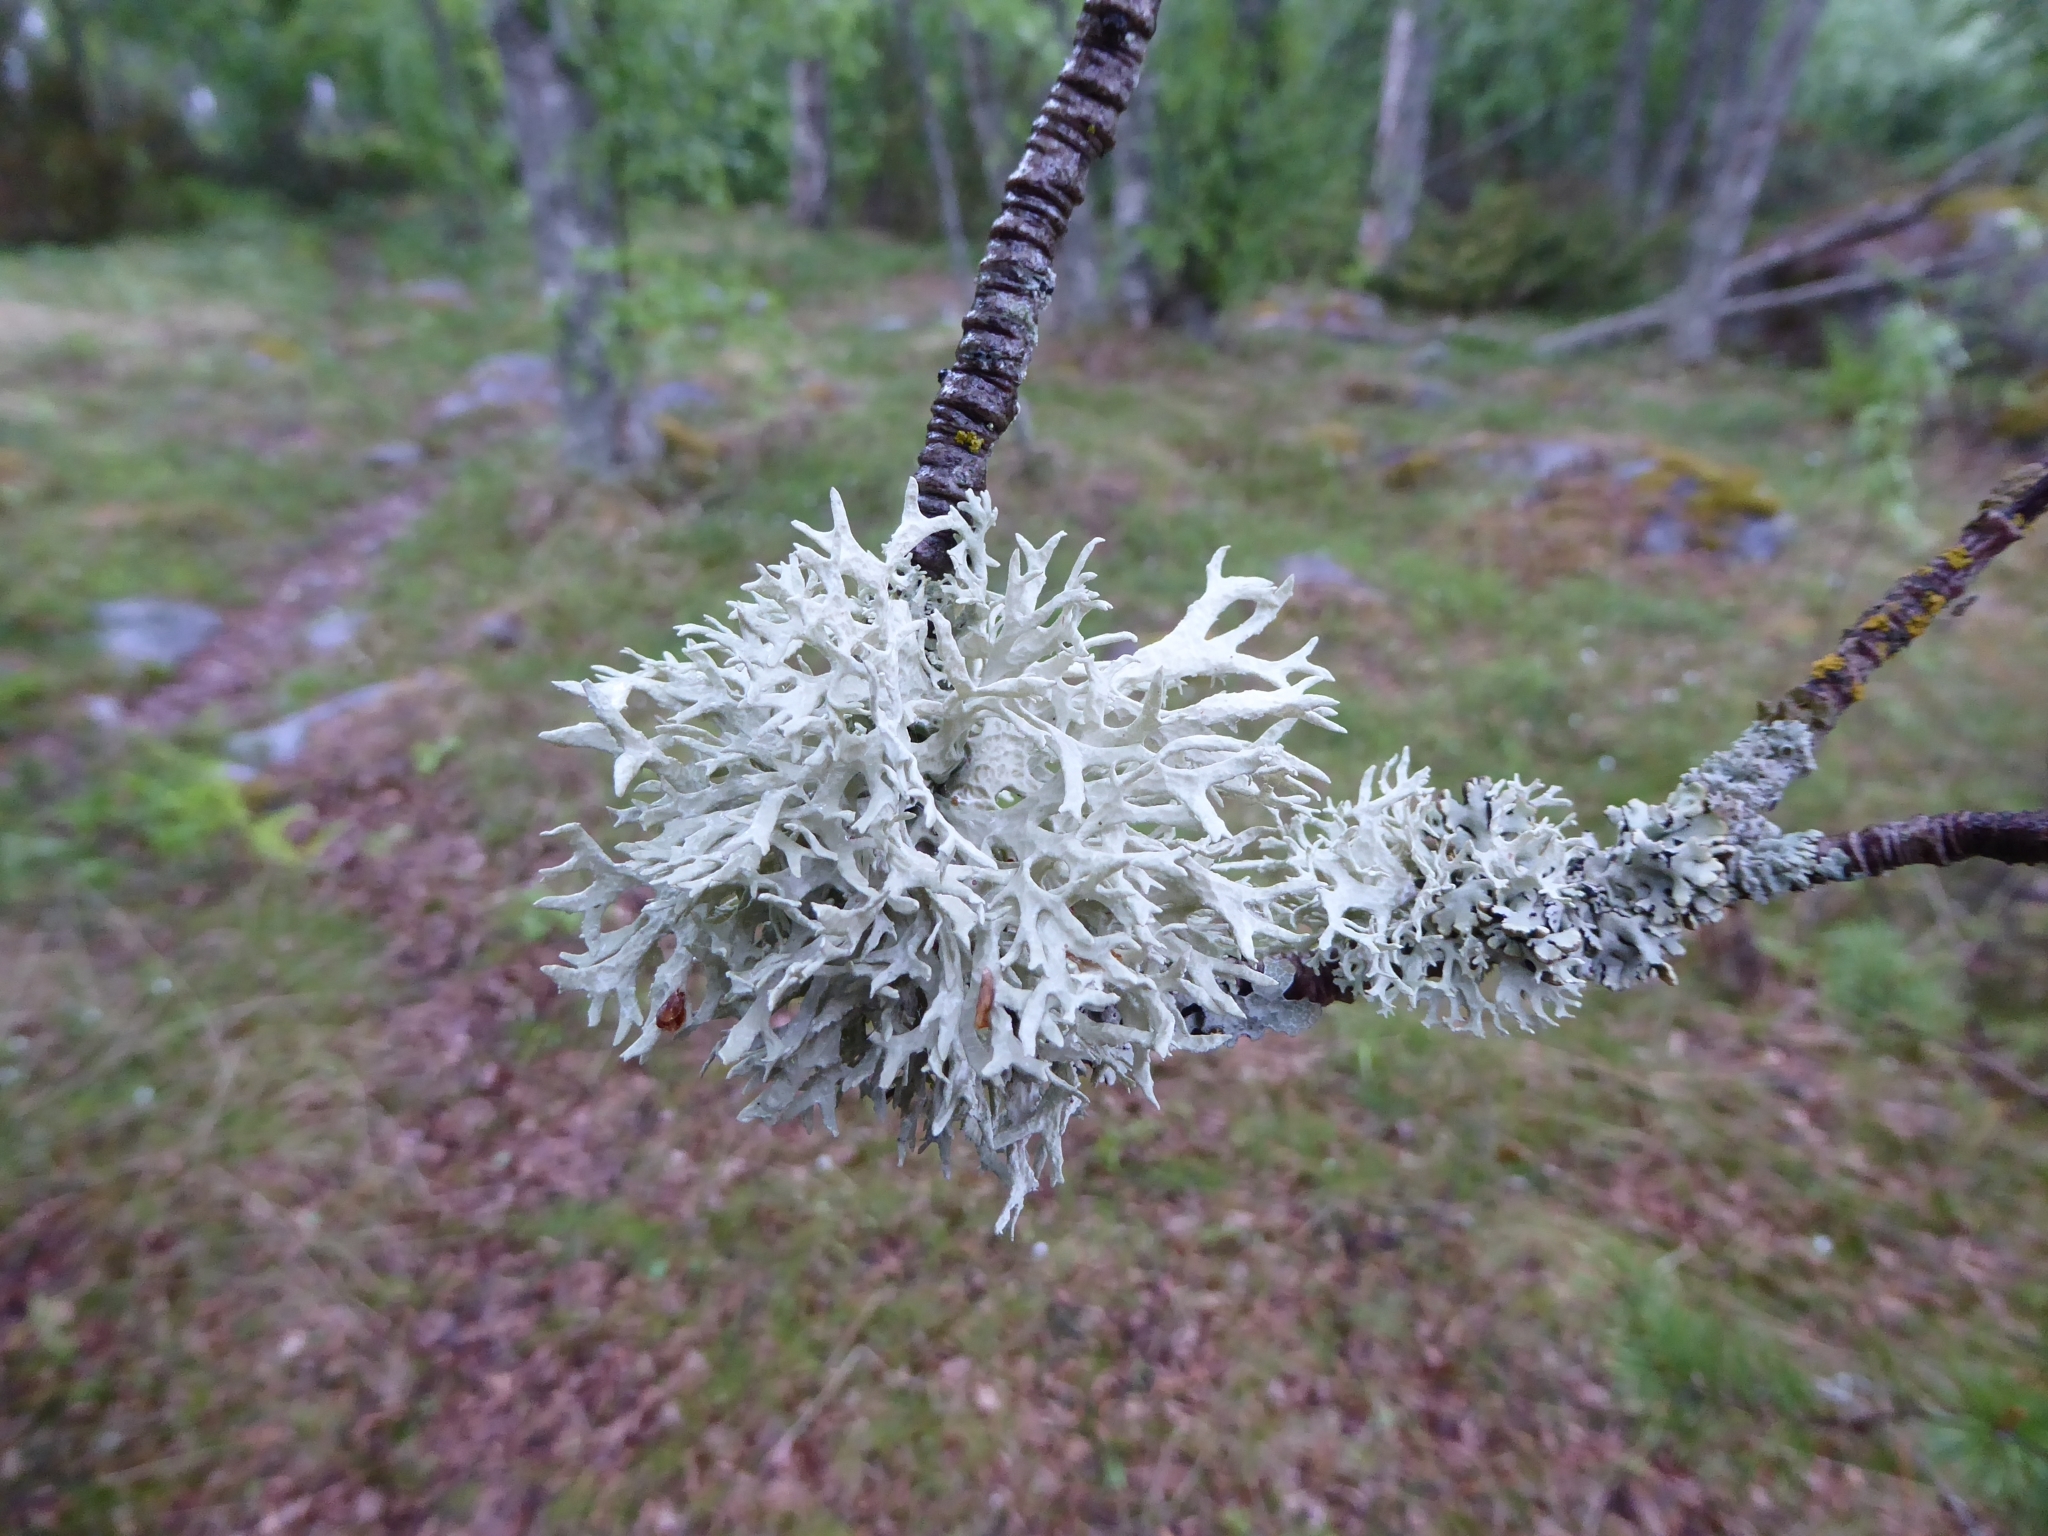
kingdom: Fungi
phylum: Ascomycota
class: Lecanoromycetes
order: Lecanorales
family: Parmeliaceae
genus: Evernia
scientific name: Evernia prunastri
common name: Oak moss
